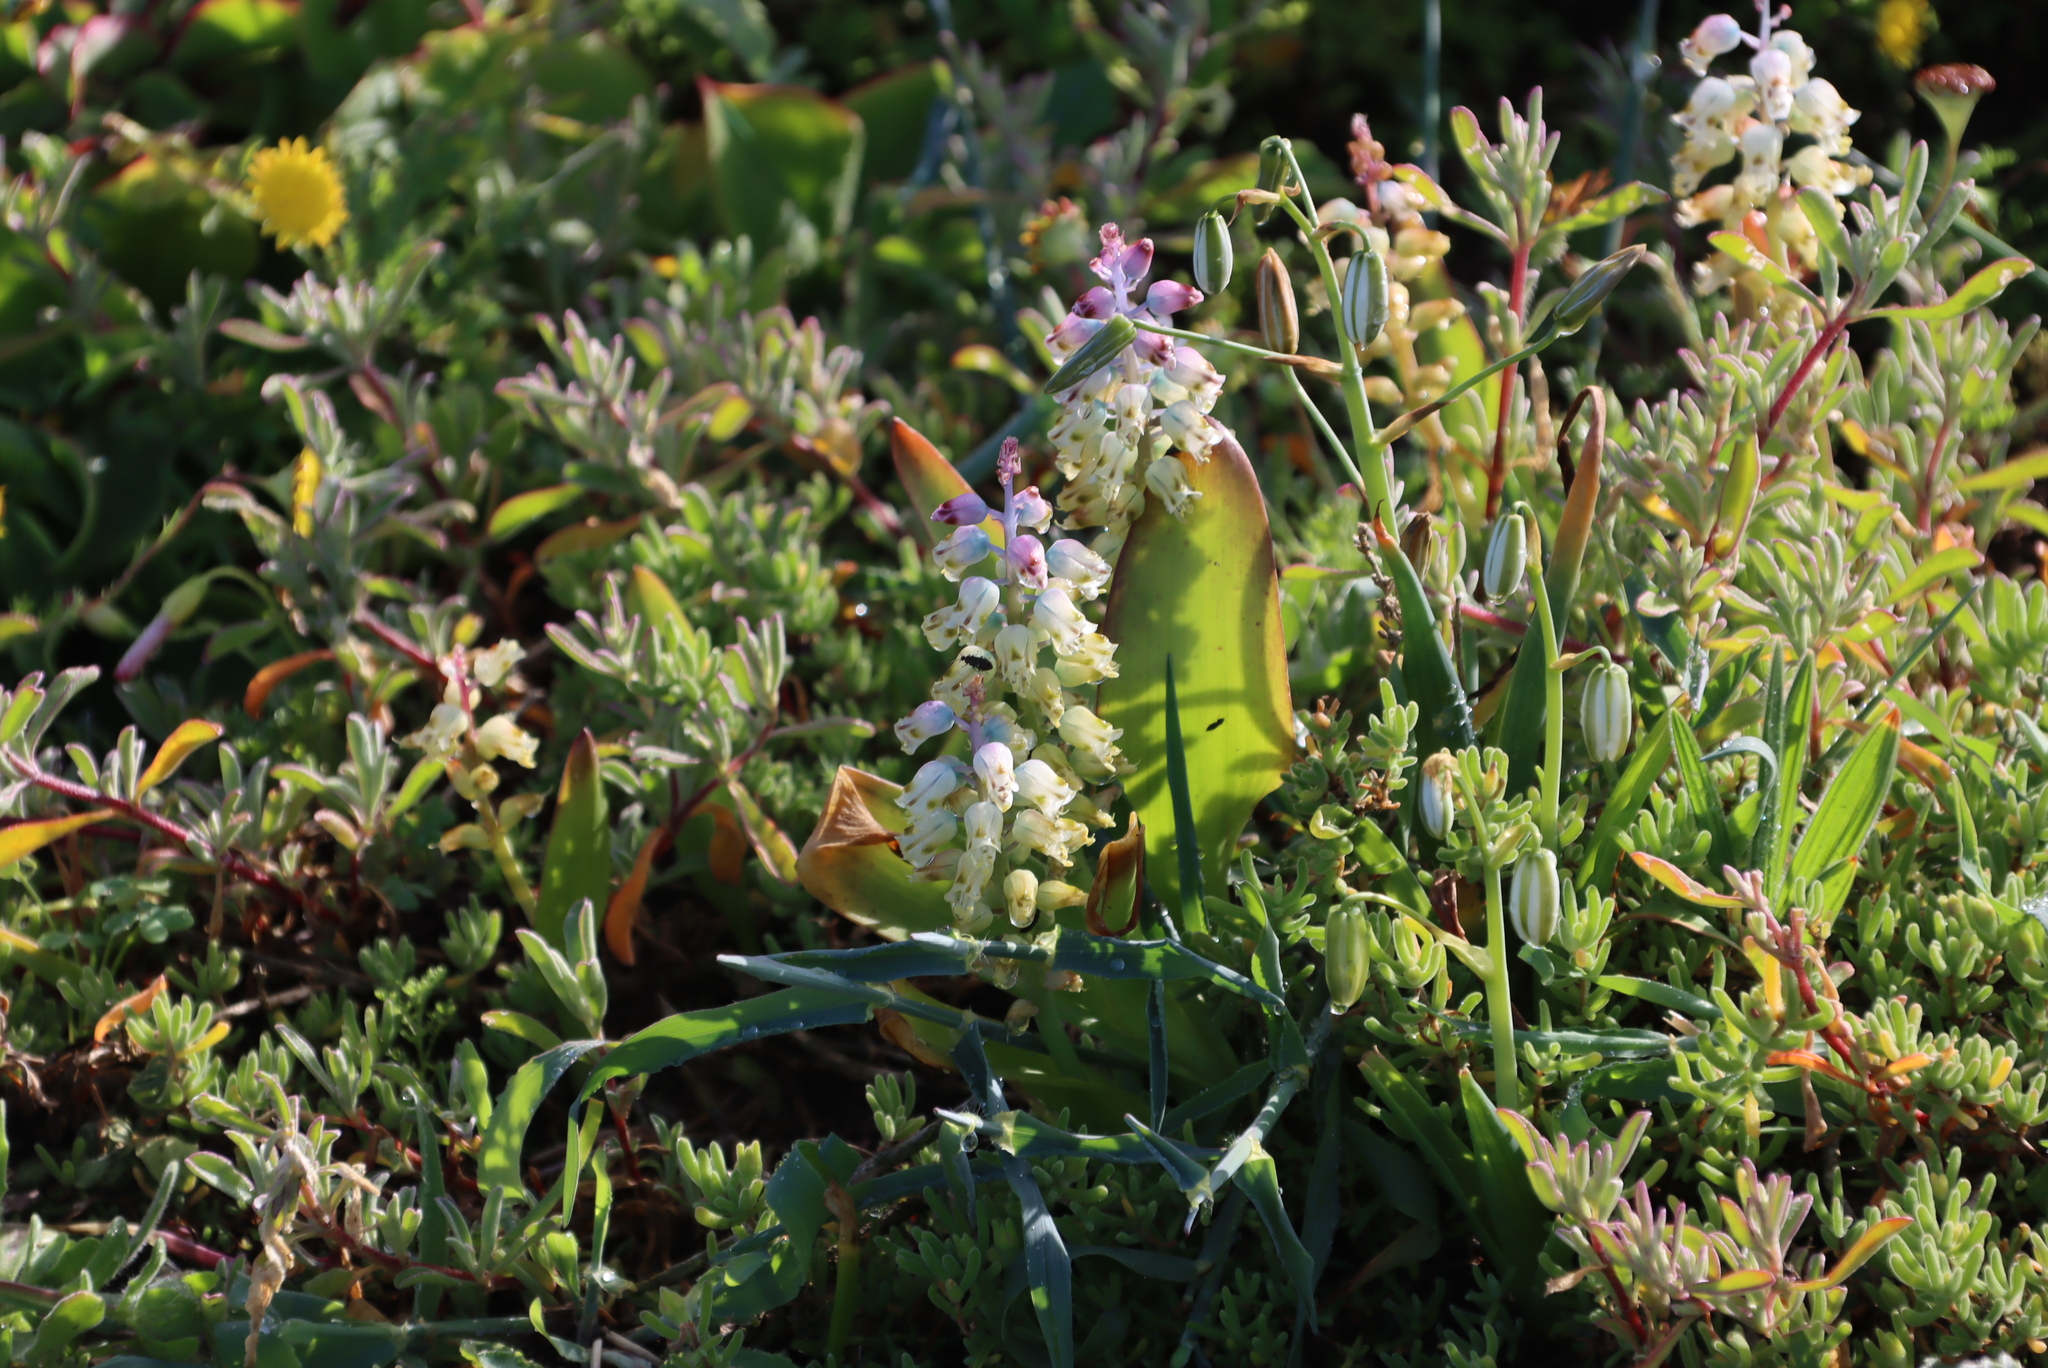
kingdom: Plantae
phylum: Tracheophyta
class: Liliopsida
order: Asparagales
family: Asparagaceae
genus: Lachenalia
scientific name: Lachenalia pallida
